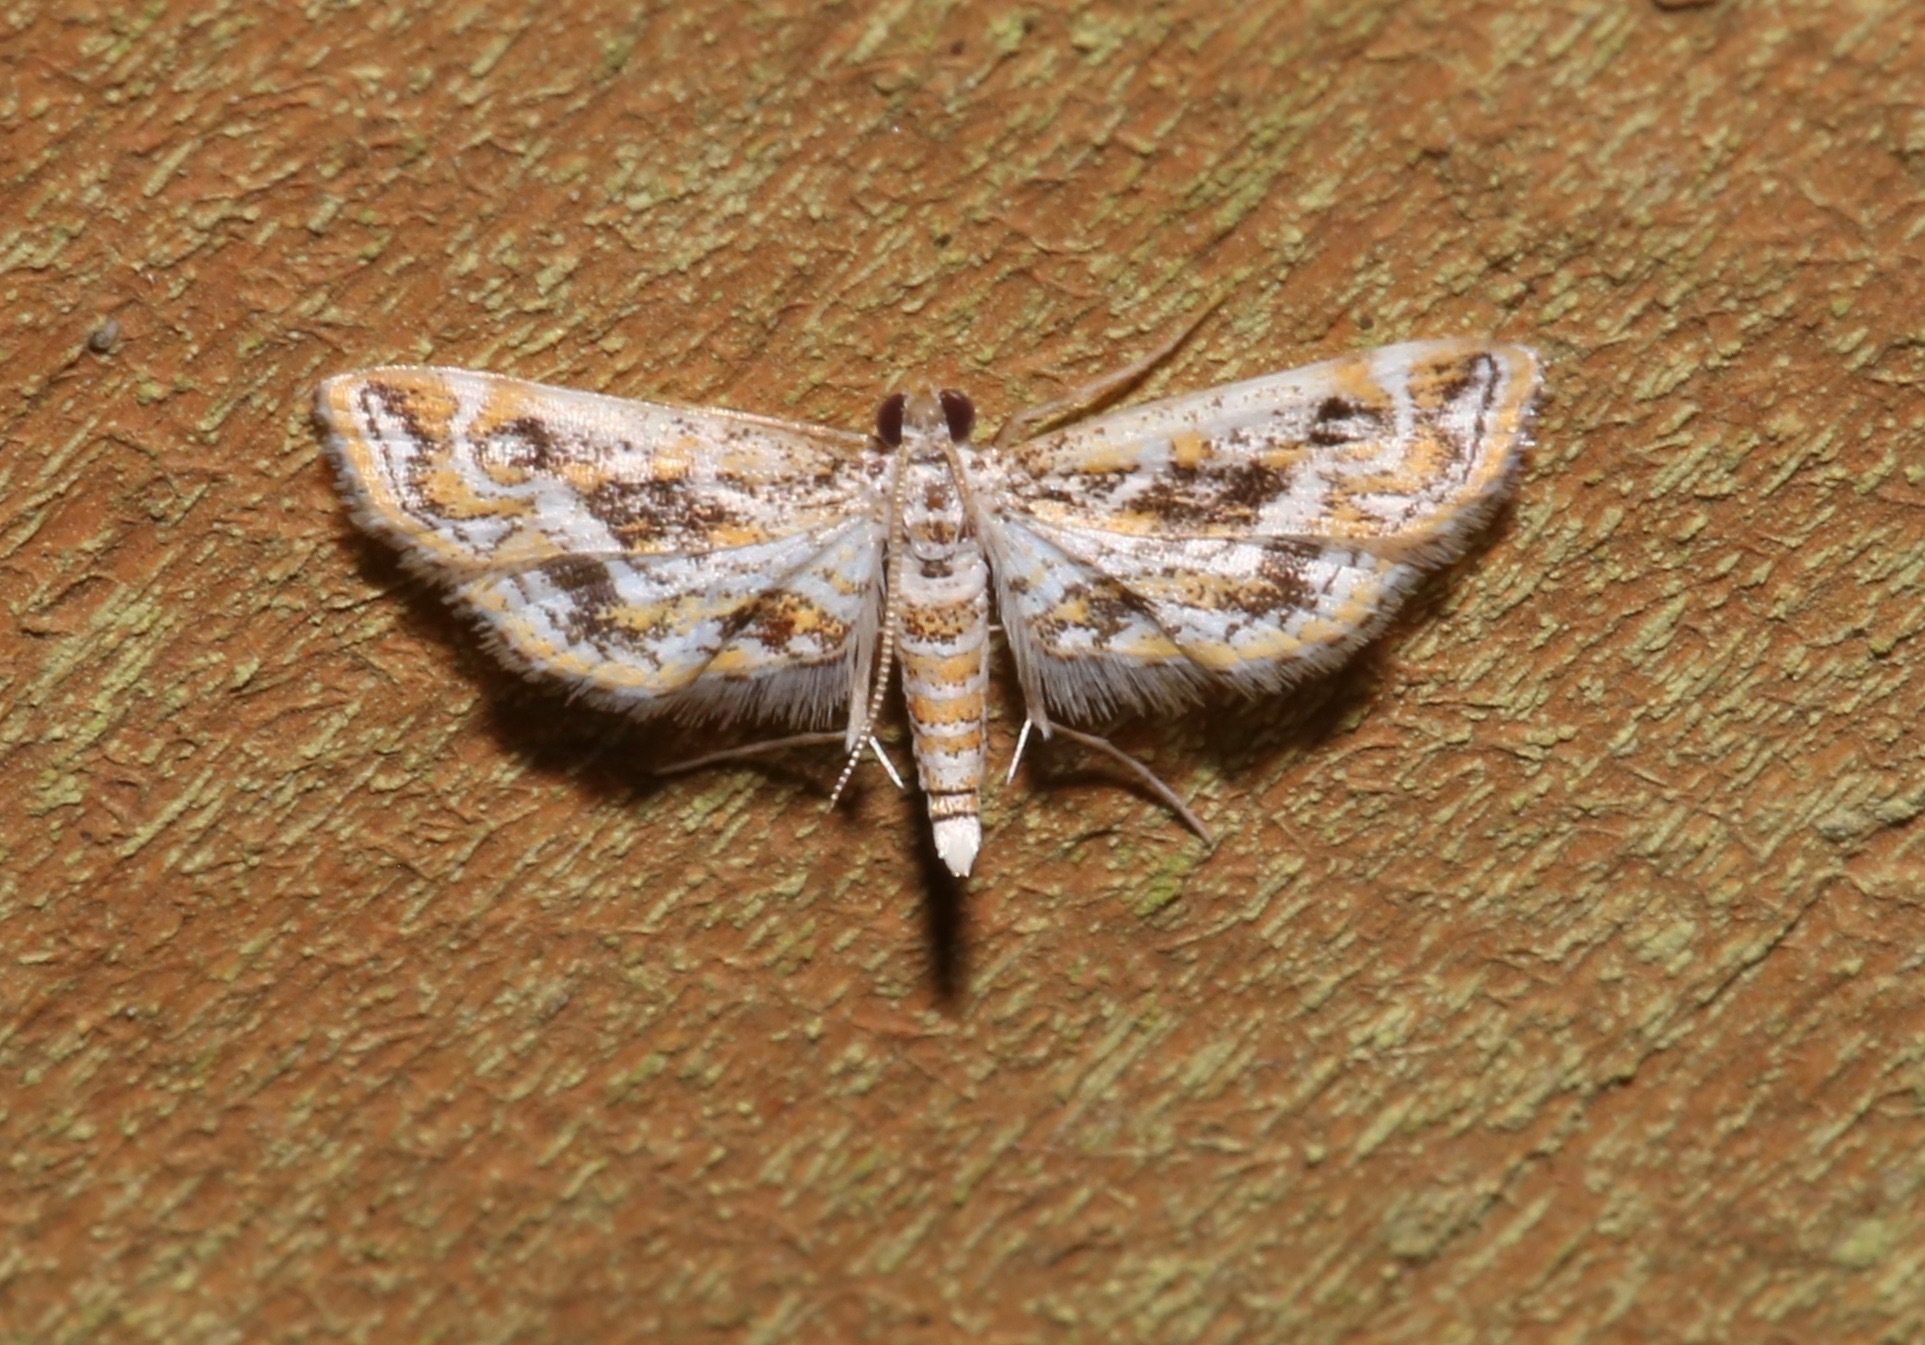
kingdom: Animalia
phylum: Arthropoda
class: Insecta
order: Lepidoptera
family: Crambidae
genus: Parapoynx
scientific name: Parapoynx diminutalis
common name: Hydrilla leafcutter
